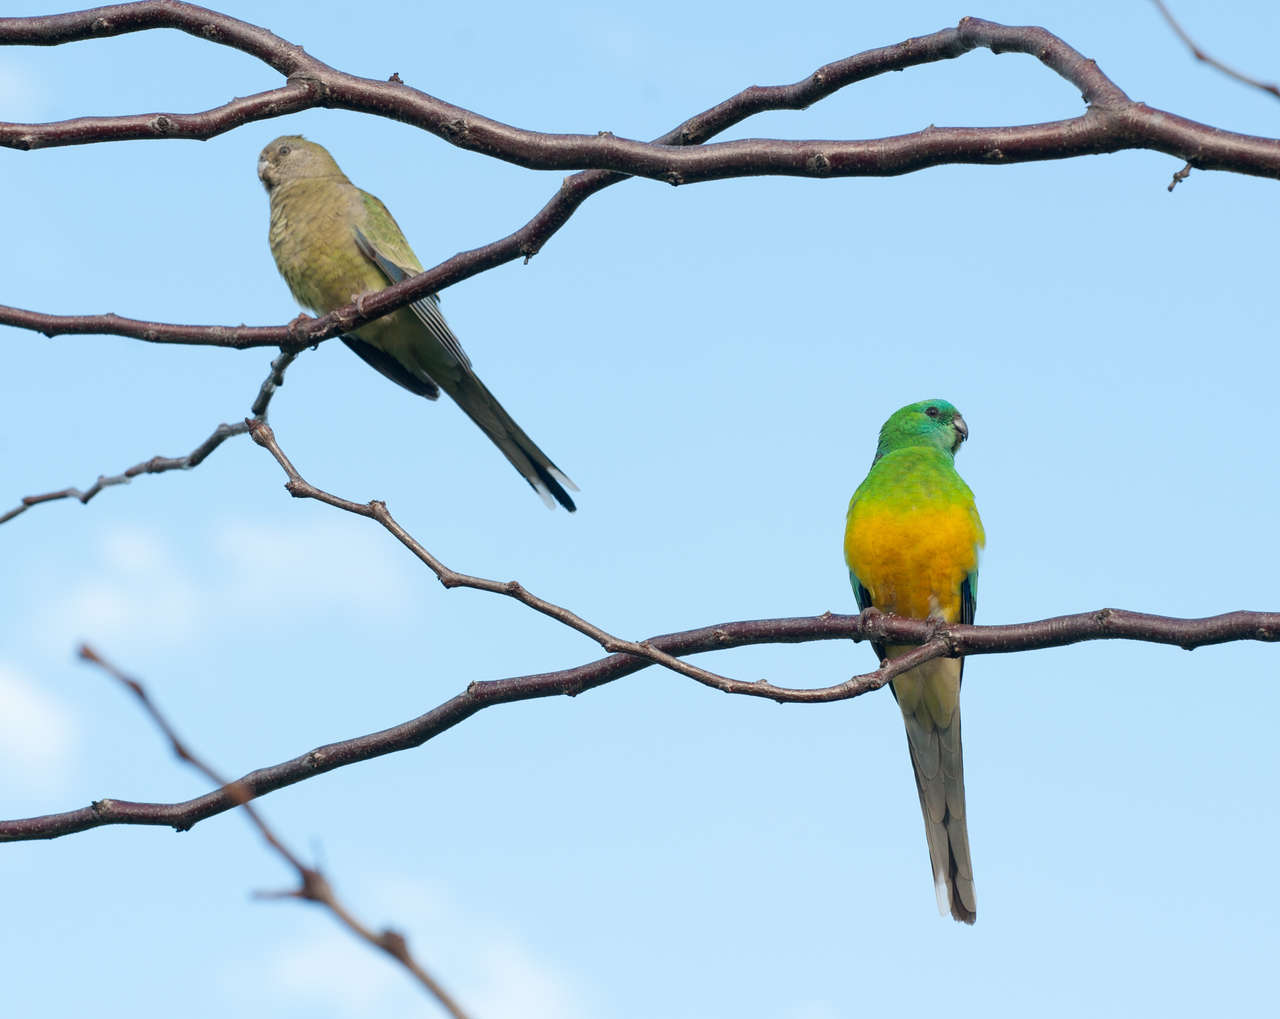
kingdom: Animalia
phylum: Chordata
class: Aves
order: Psittaciformes
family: Psittacidae
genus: Psephotus
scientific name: Psephotus haematonotus
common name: Red-rumped parrot
